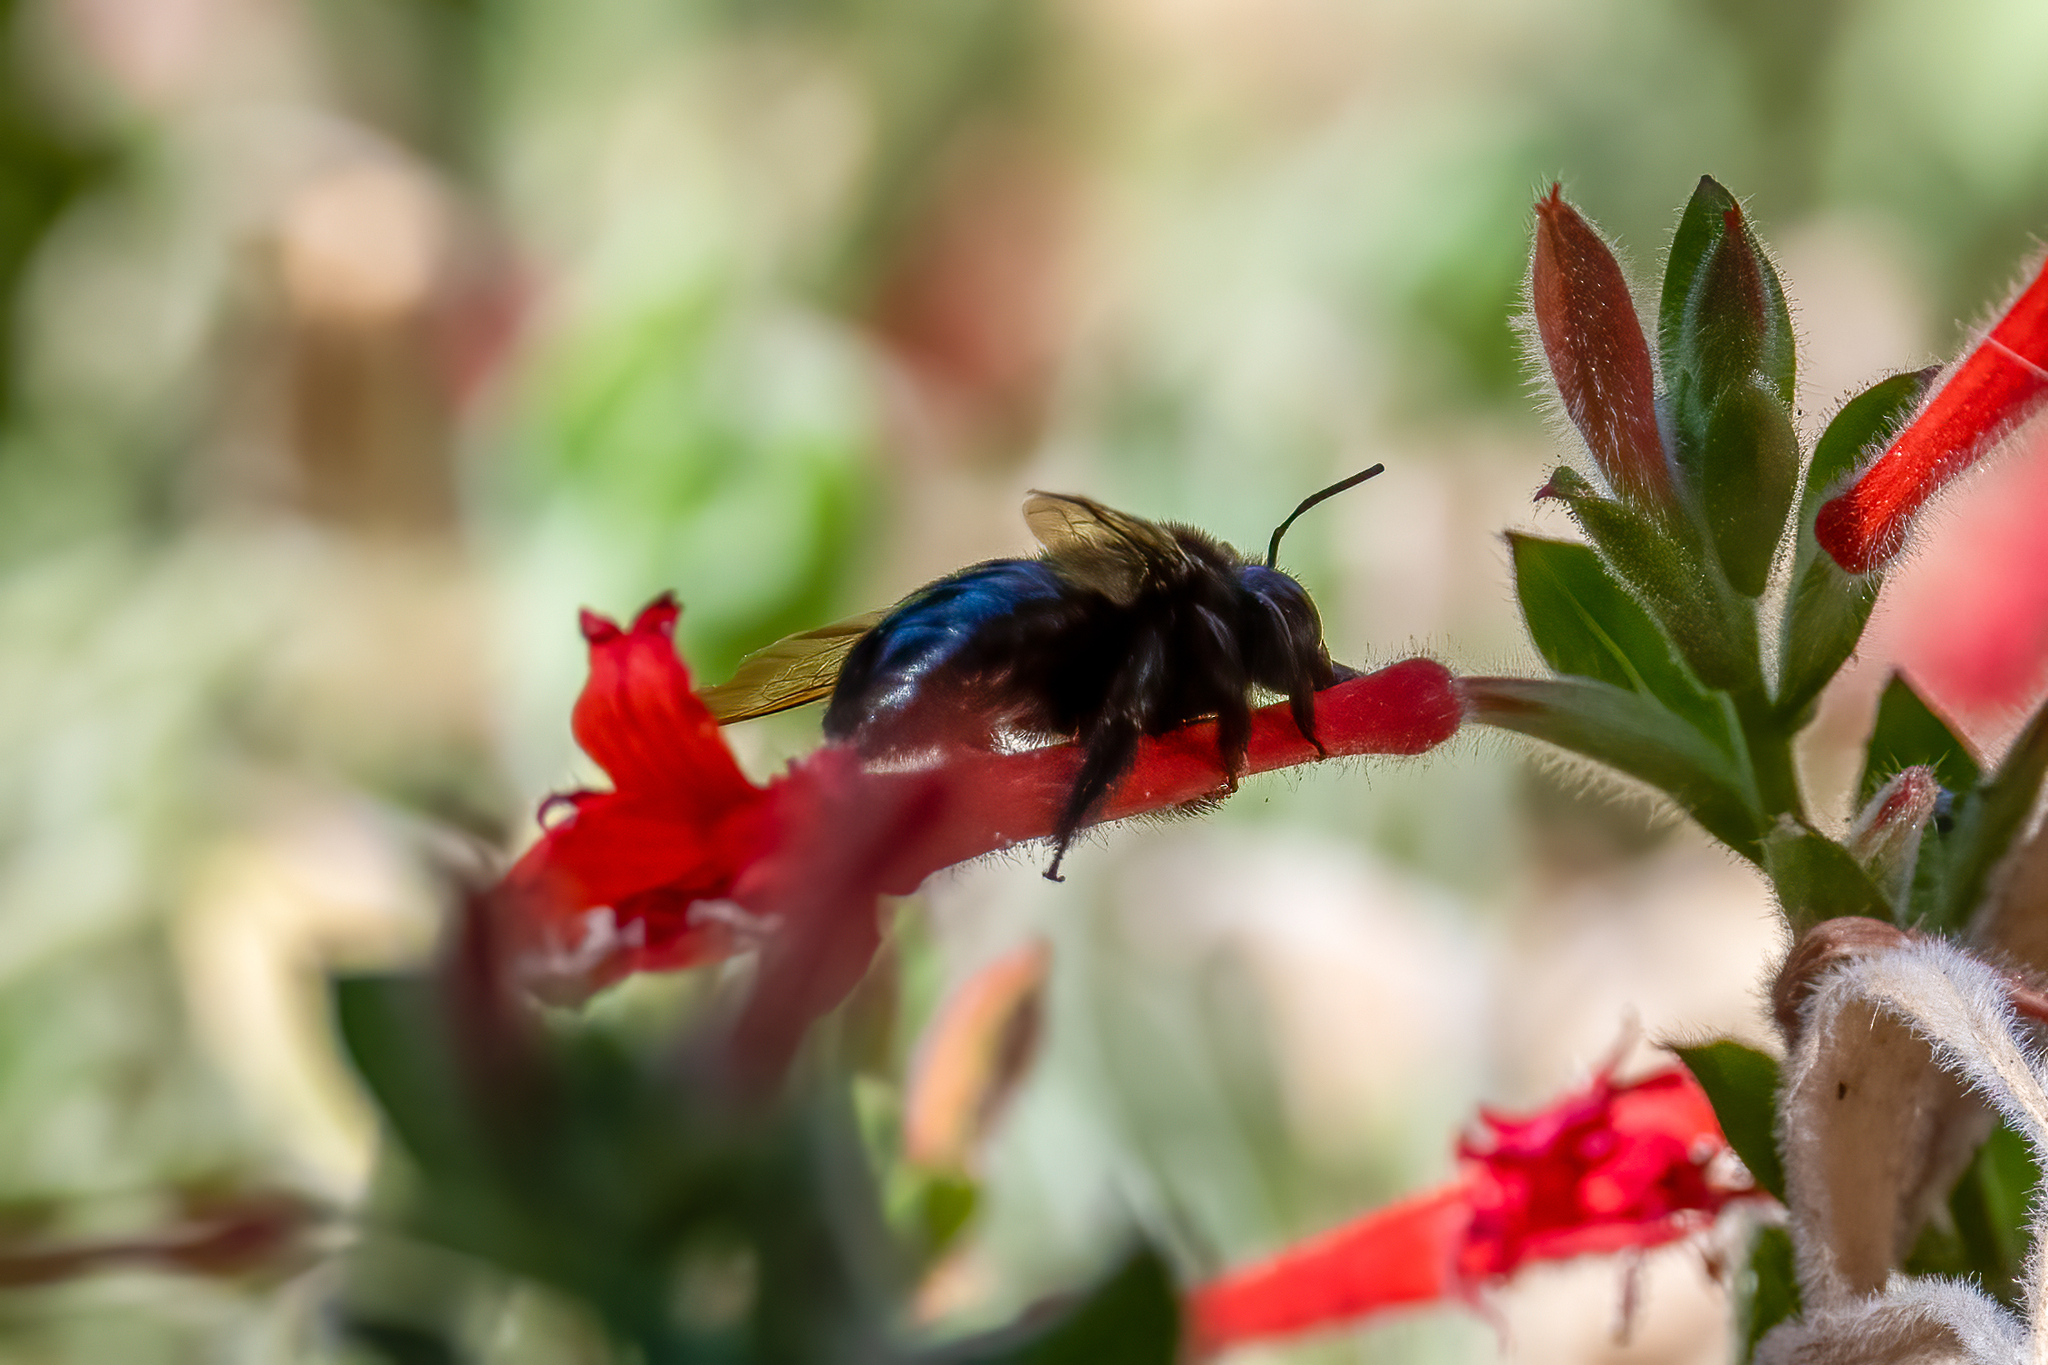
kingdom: Animalia
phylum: Arthropoda
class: Insecta
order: Hymenoptera
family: Apidae
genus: Xylocopa
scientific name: Xylocopa tabaniformis
